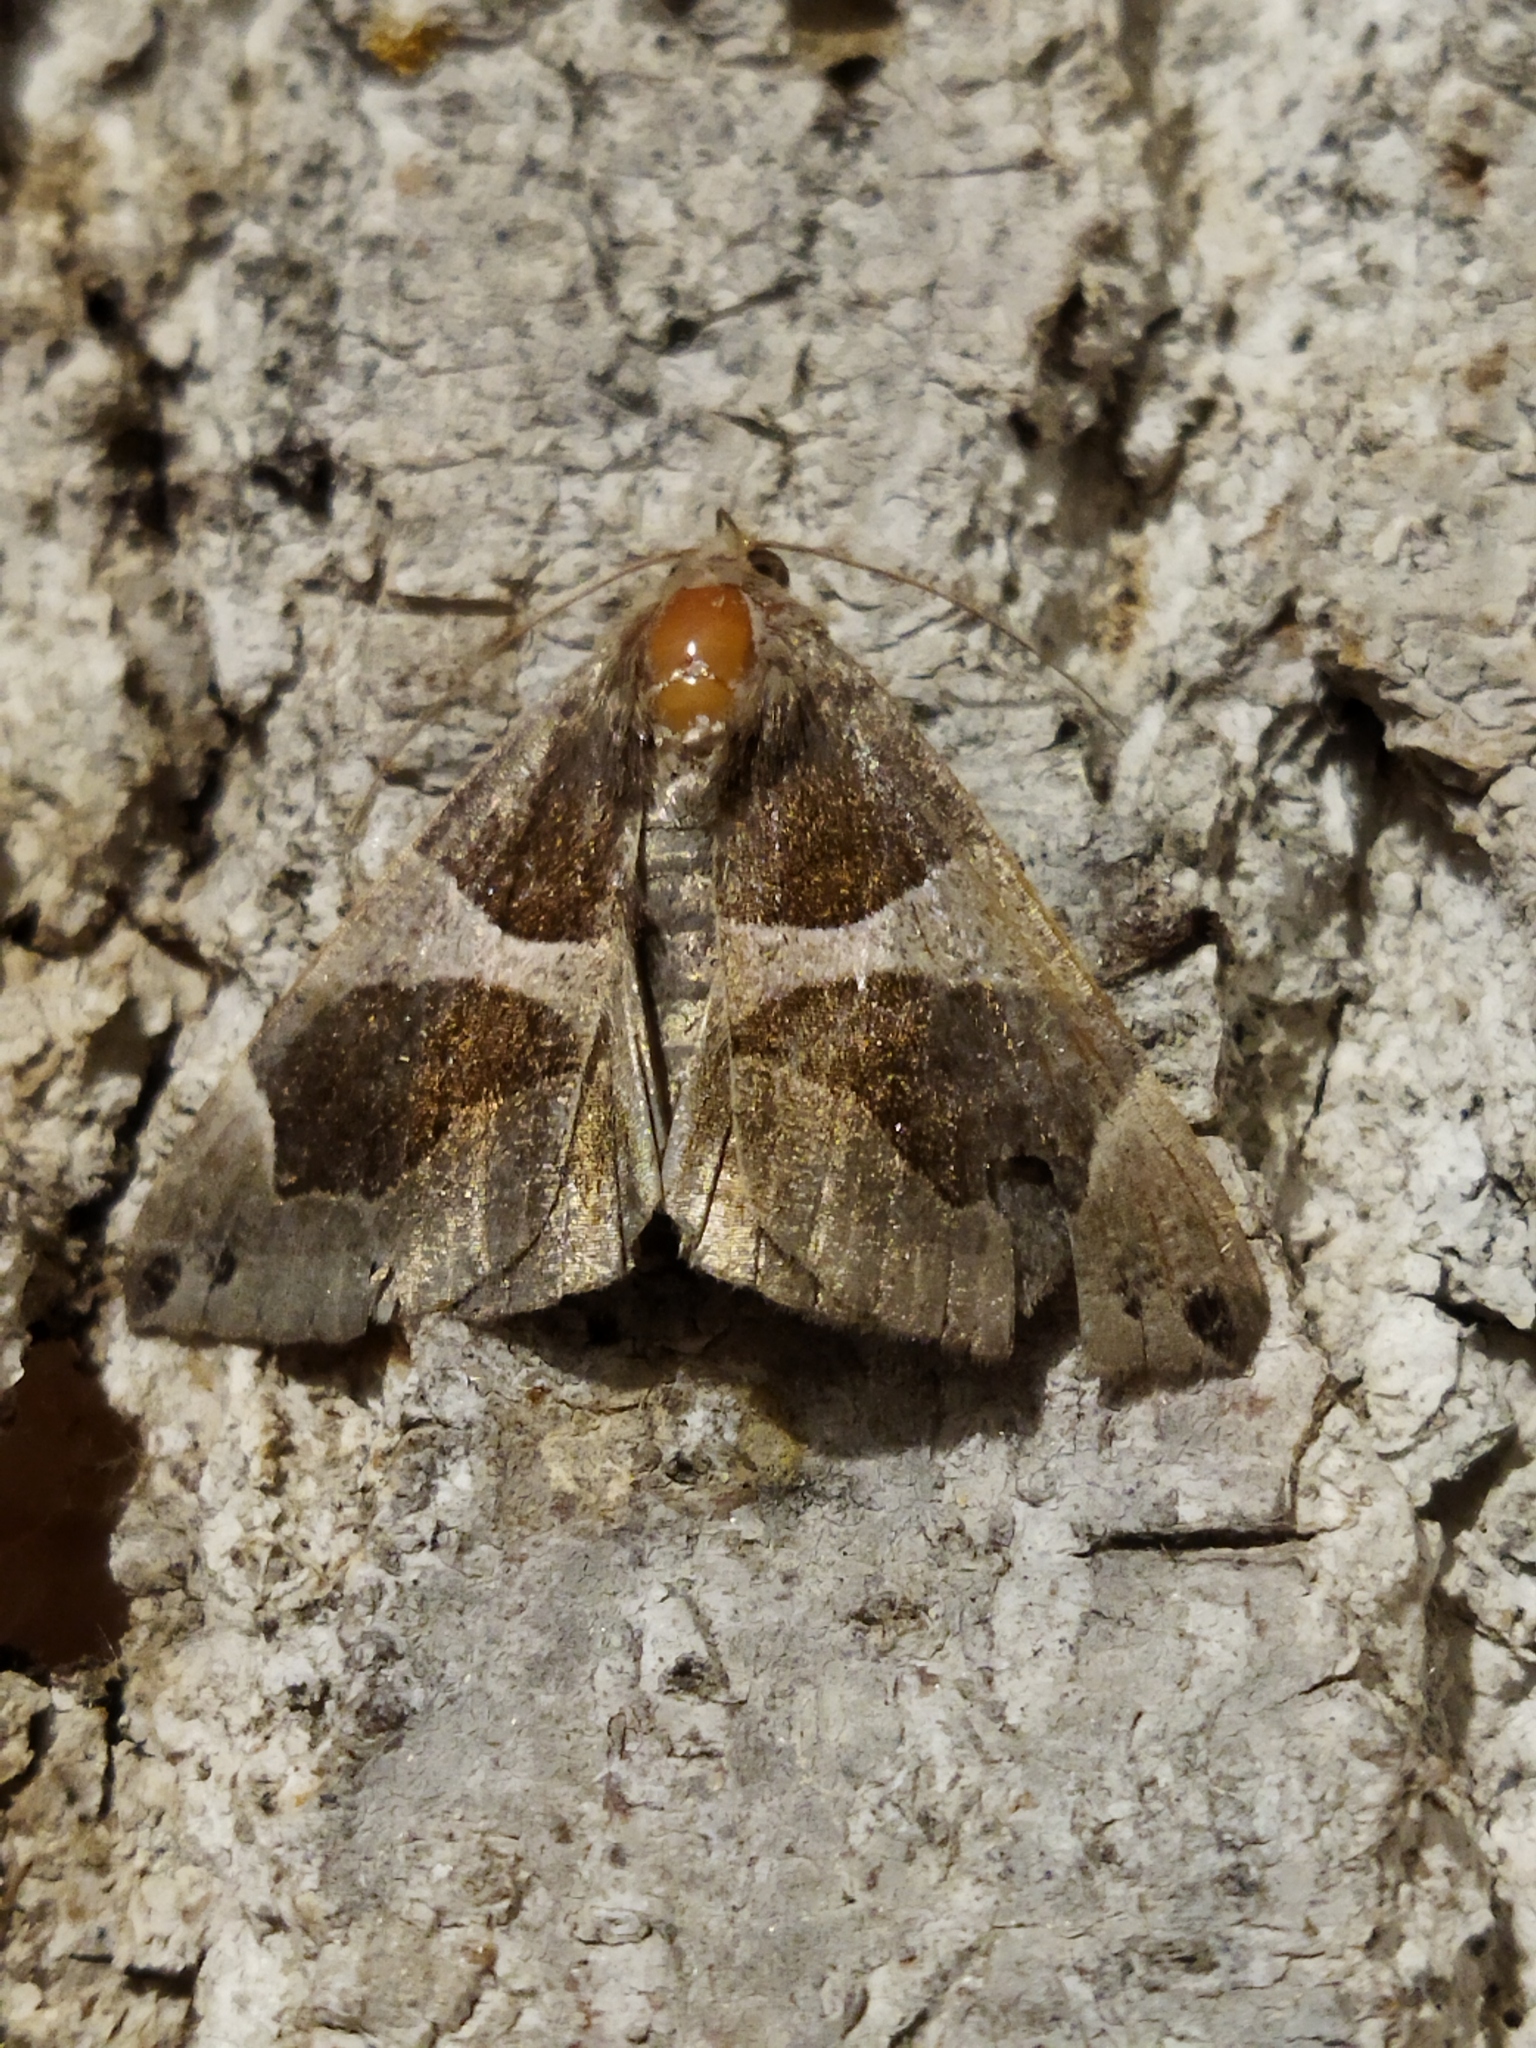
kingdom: Animalia
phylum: Arthropoda
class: Insecta
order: Lepidoptera
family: Erebidae
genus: Dysgonia
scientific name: Dysgonia algira
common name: Passenger
